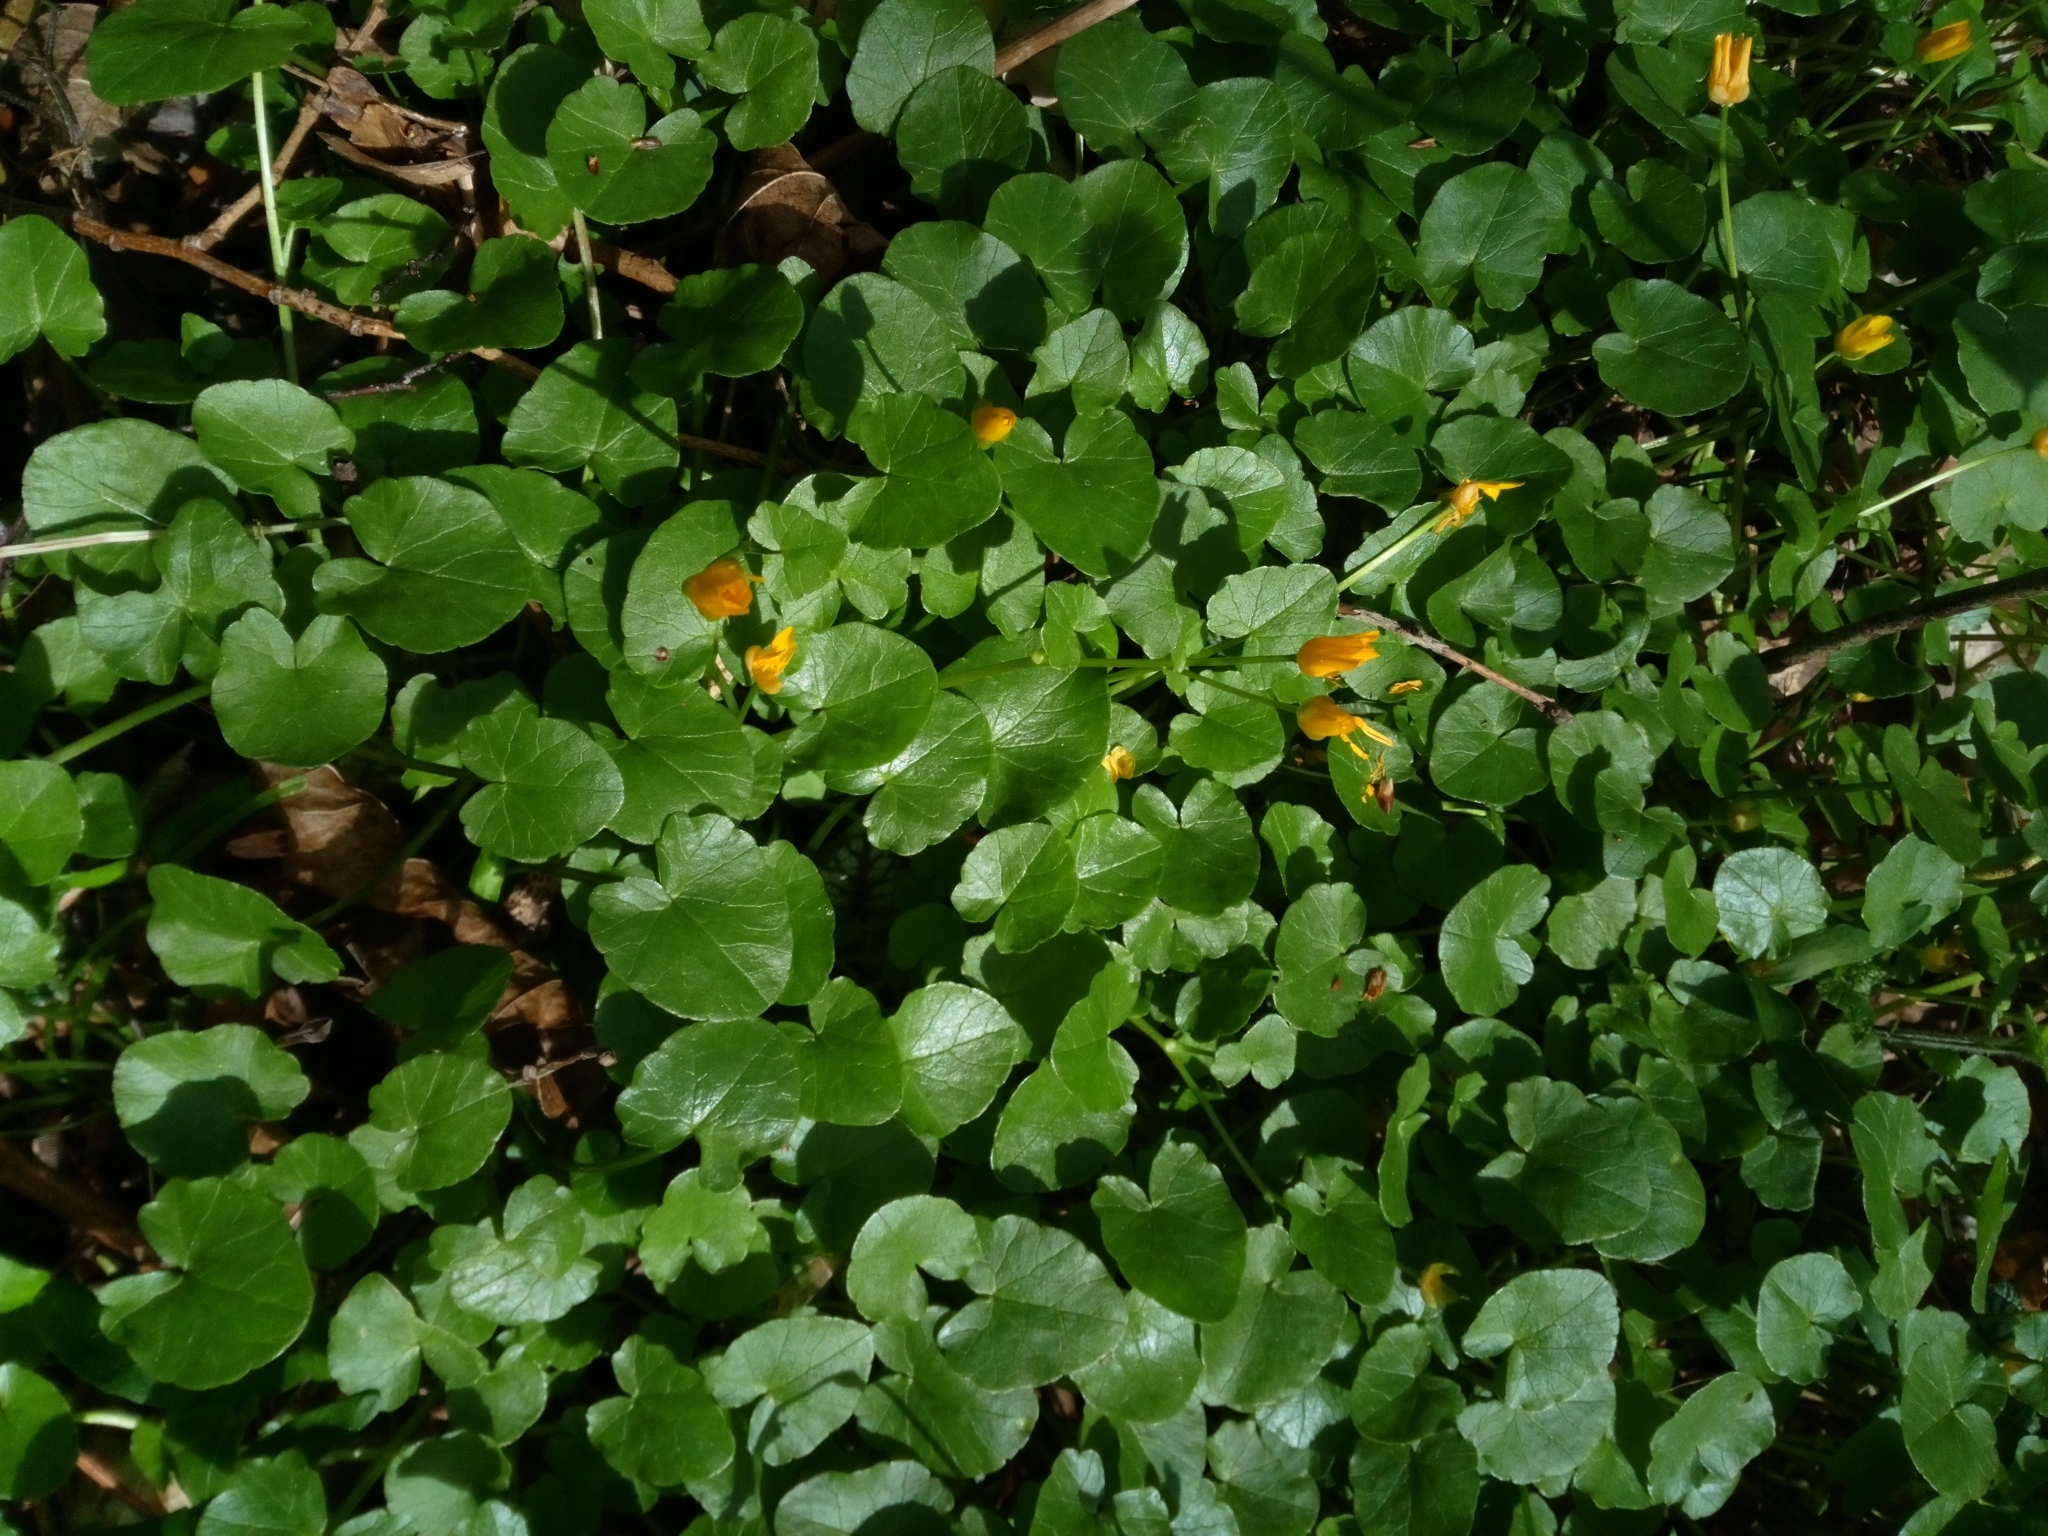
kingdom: Plantae
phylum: Tracheophyta
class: Magnoliopsida
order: Ranunculales
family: Ranunculaceae
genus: Ficaria
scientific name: Ficaria verna
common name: Lesser celandine
